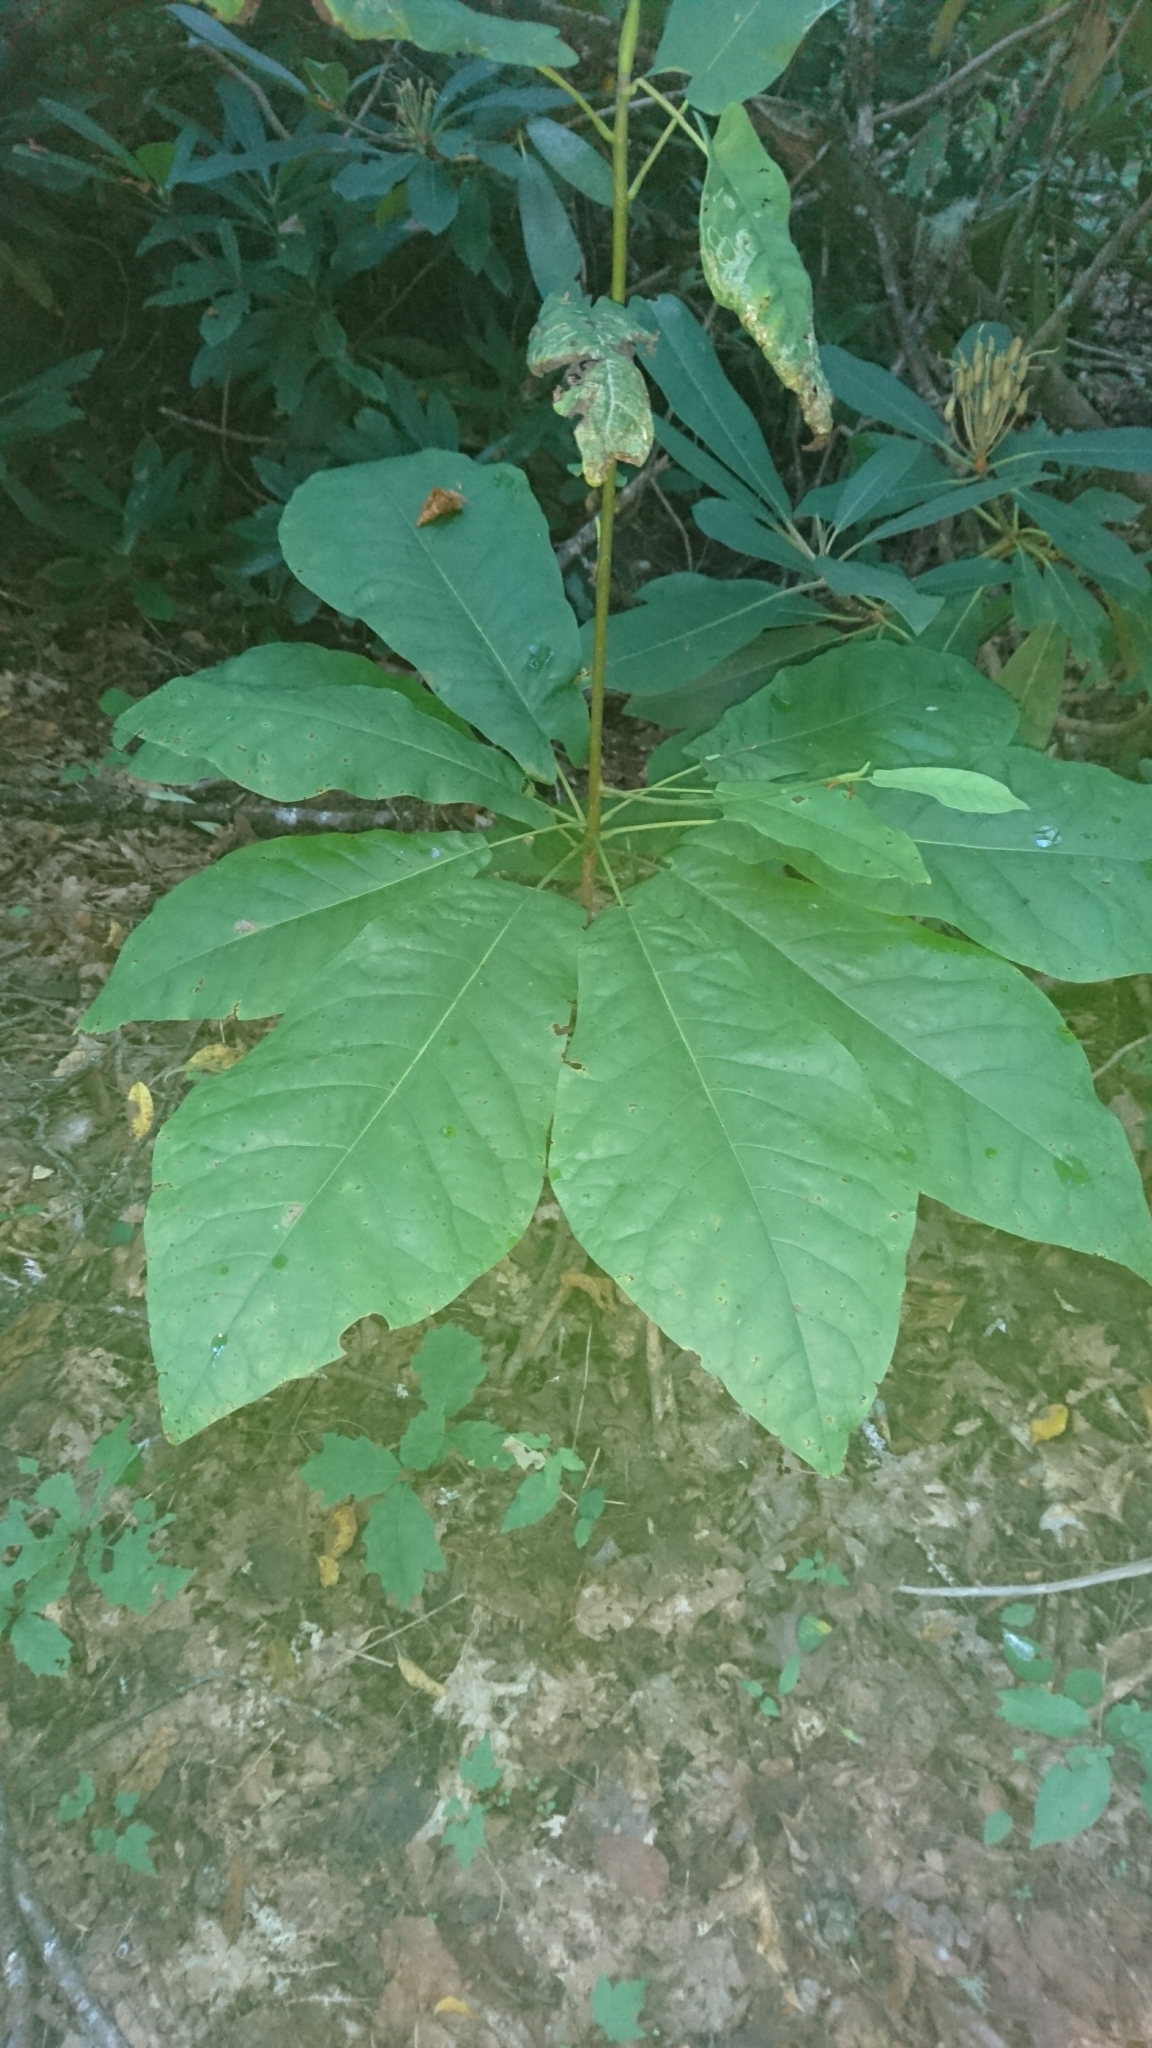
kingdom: Plantae
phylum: Tracheophyta
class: Magnoliopsida
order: Magnoliales
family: Magnoliaceae
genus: Magnolia
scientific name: Magnolia fraseri
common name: Fraser's magnolia
